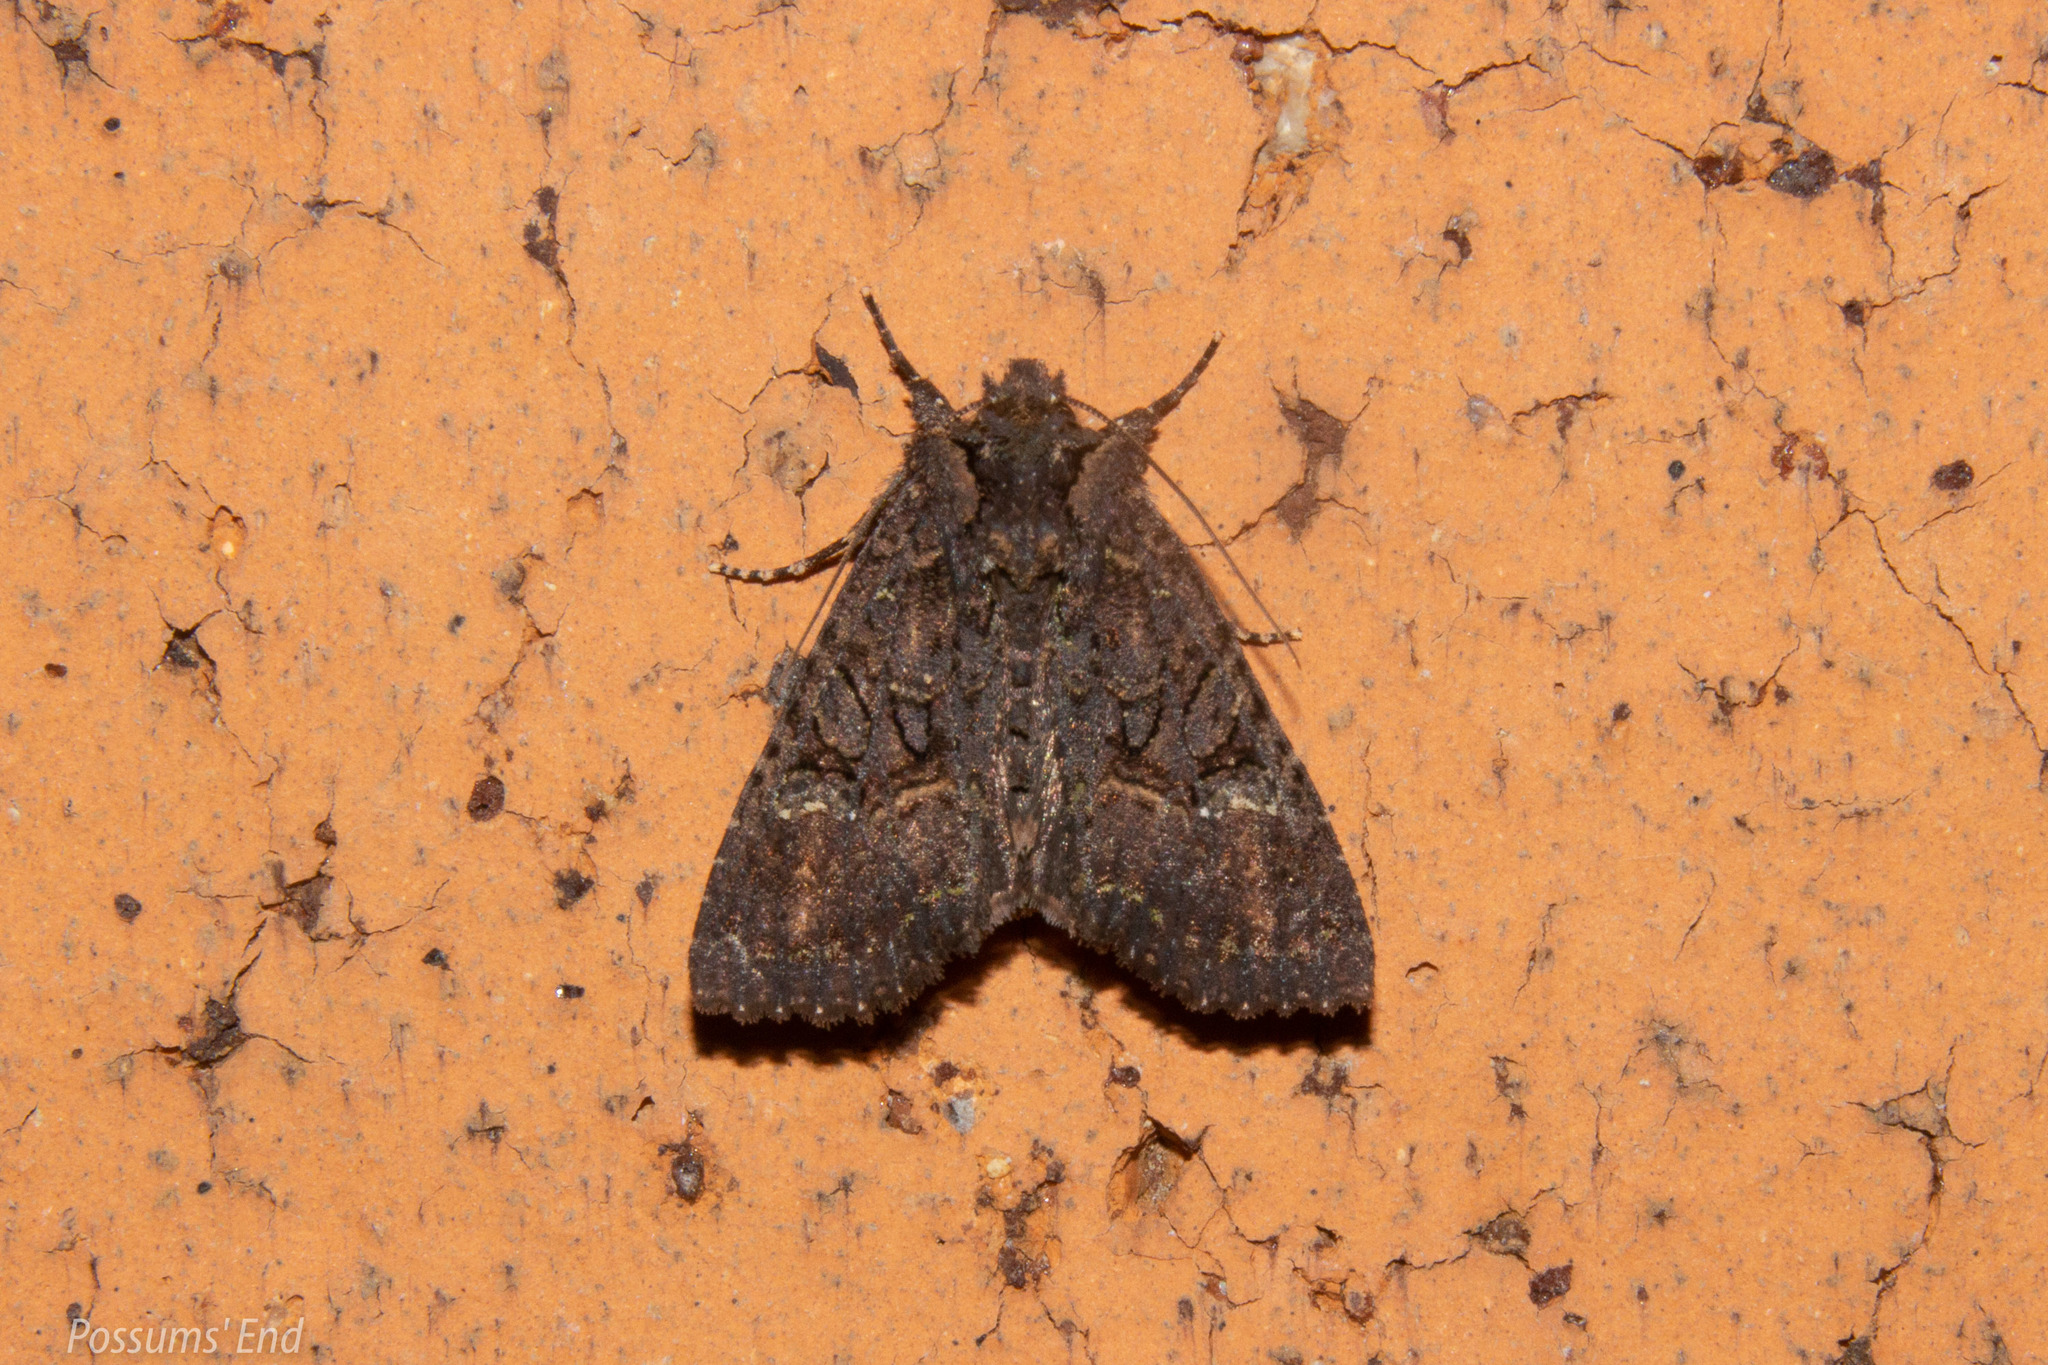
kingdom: Animalia
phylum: Arthropoda
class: Insecta
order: Lepidoptera
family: Noctuidae
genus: Meterana
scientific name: Meterana ochthistis
